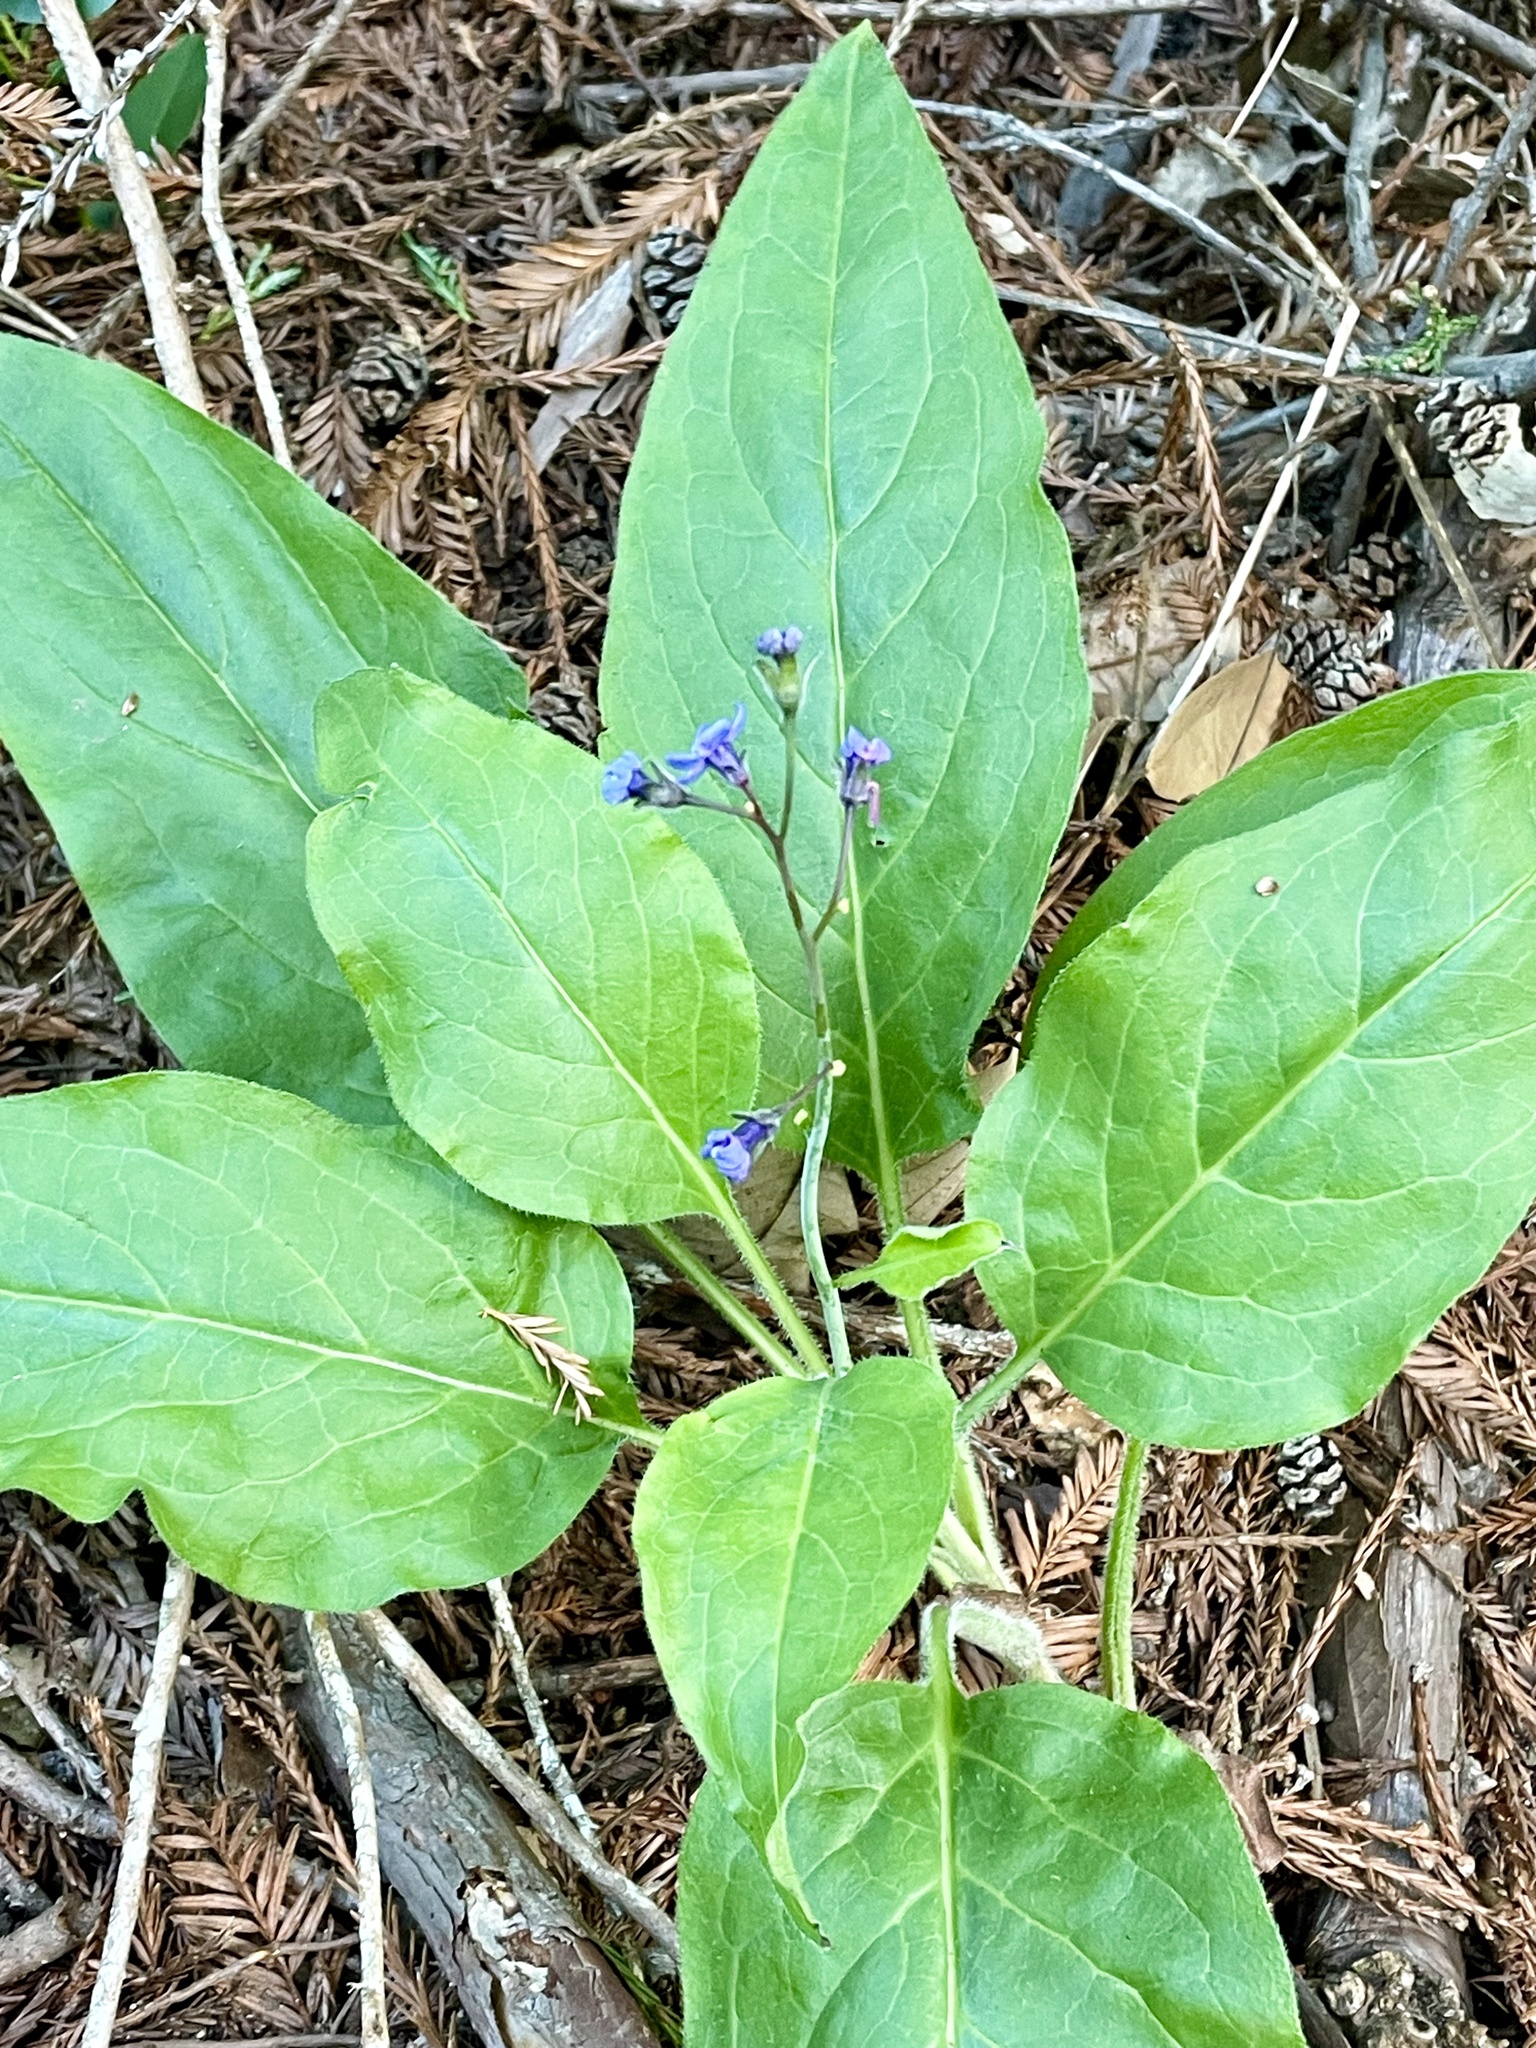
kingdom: Plantae
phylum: Tracheophyta
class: Magnoliopsida
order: Boraginales
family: Boraginaceae
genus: Adelinia
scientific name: Adelinia grande
